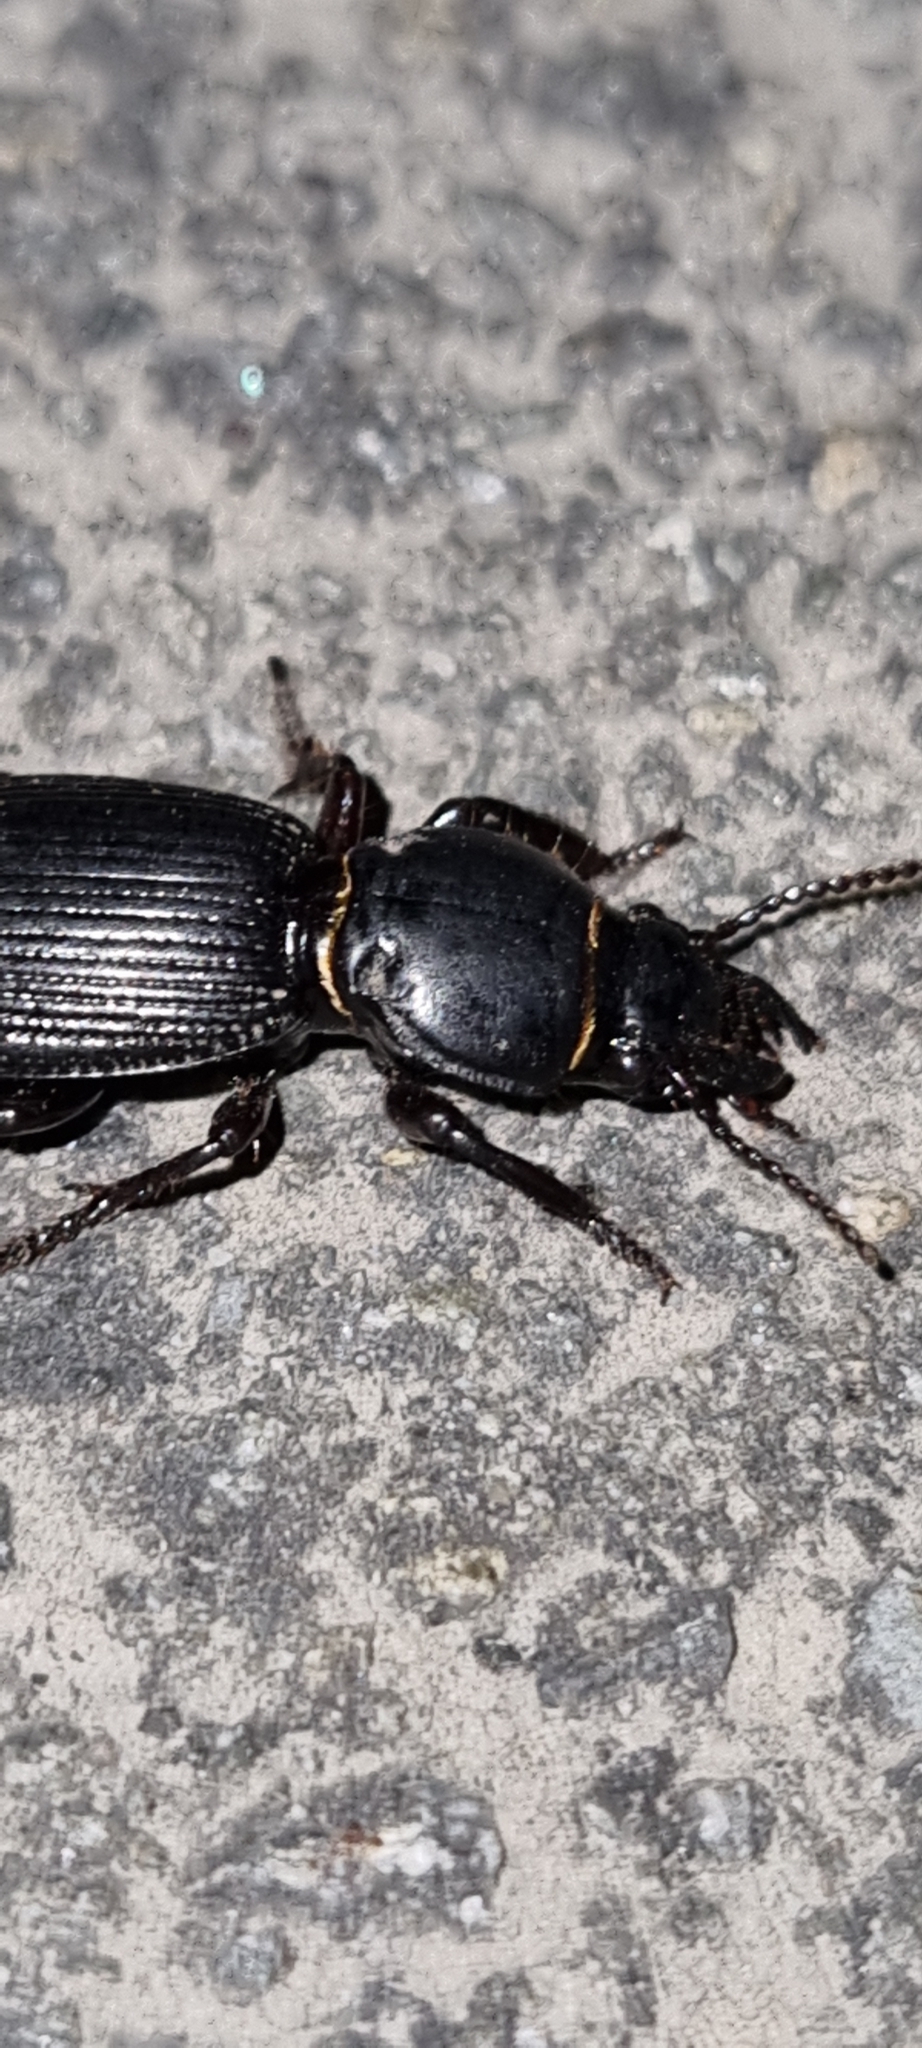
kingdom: Animalia
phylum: Arthropoda
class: Insecta
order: Coleoptera
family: Carabidae
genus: Mecodema
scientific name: Mecodema moniliferum
